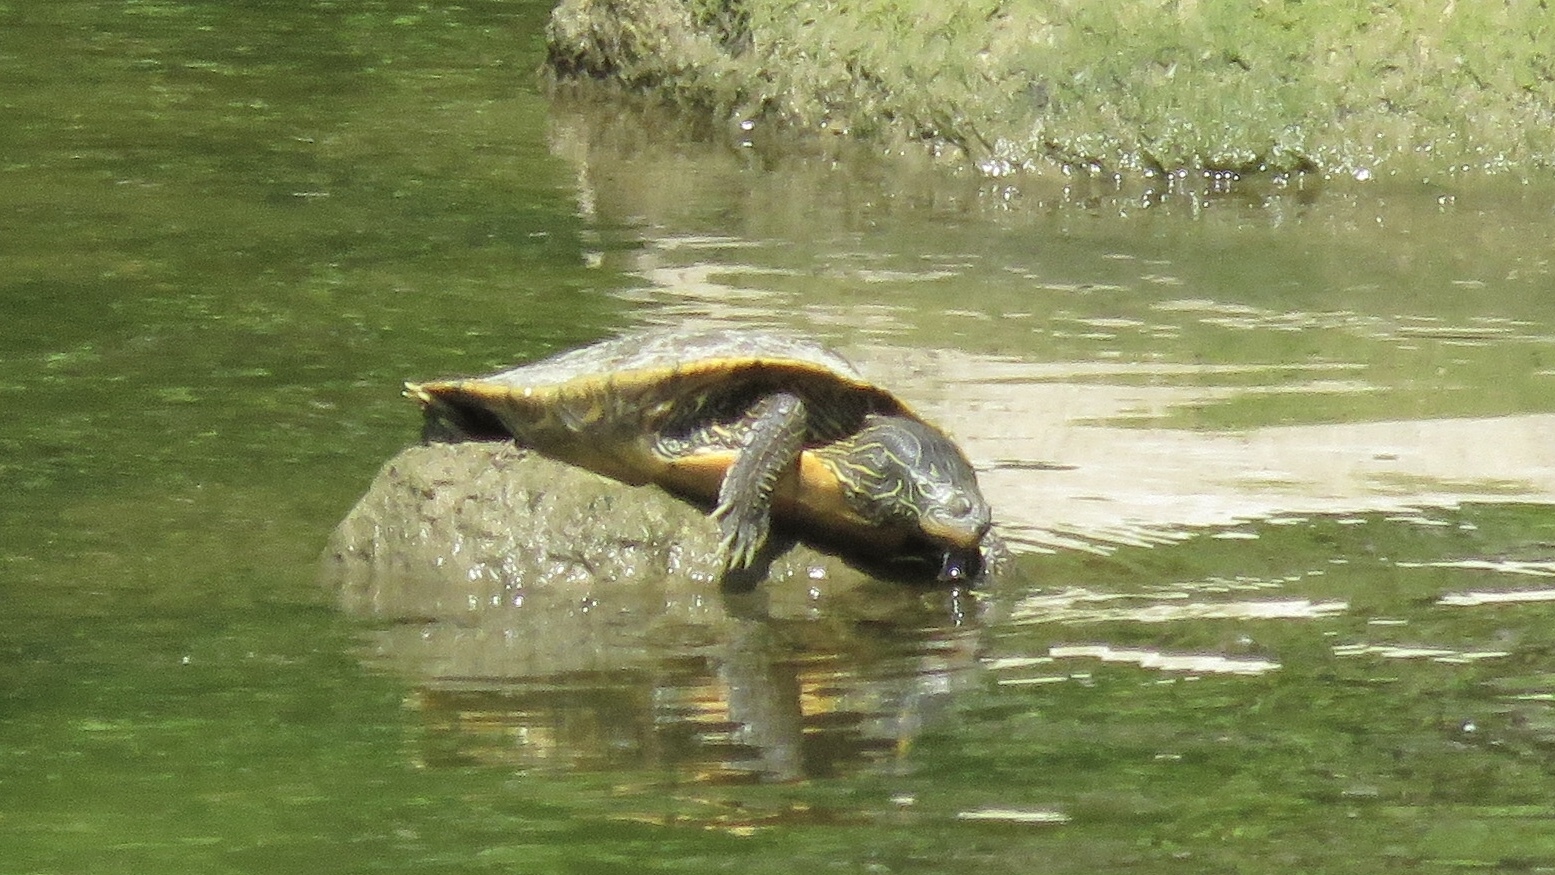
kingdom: Animalia
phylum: Chordata
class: Testudines
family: Emydidae
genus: Graptemys
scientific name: Graptemys geographica
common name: Common map turtle
